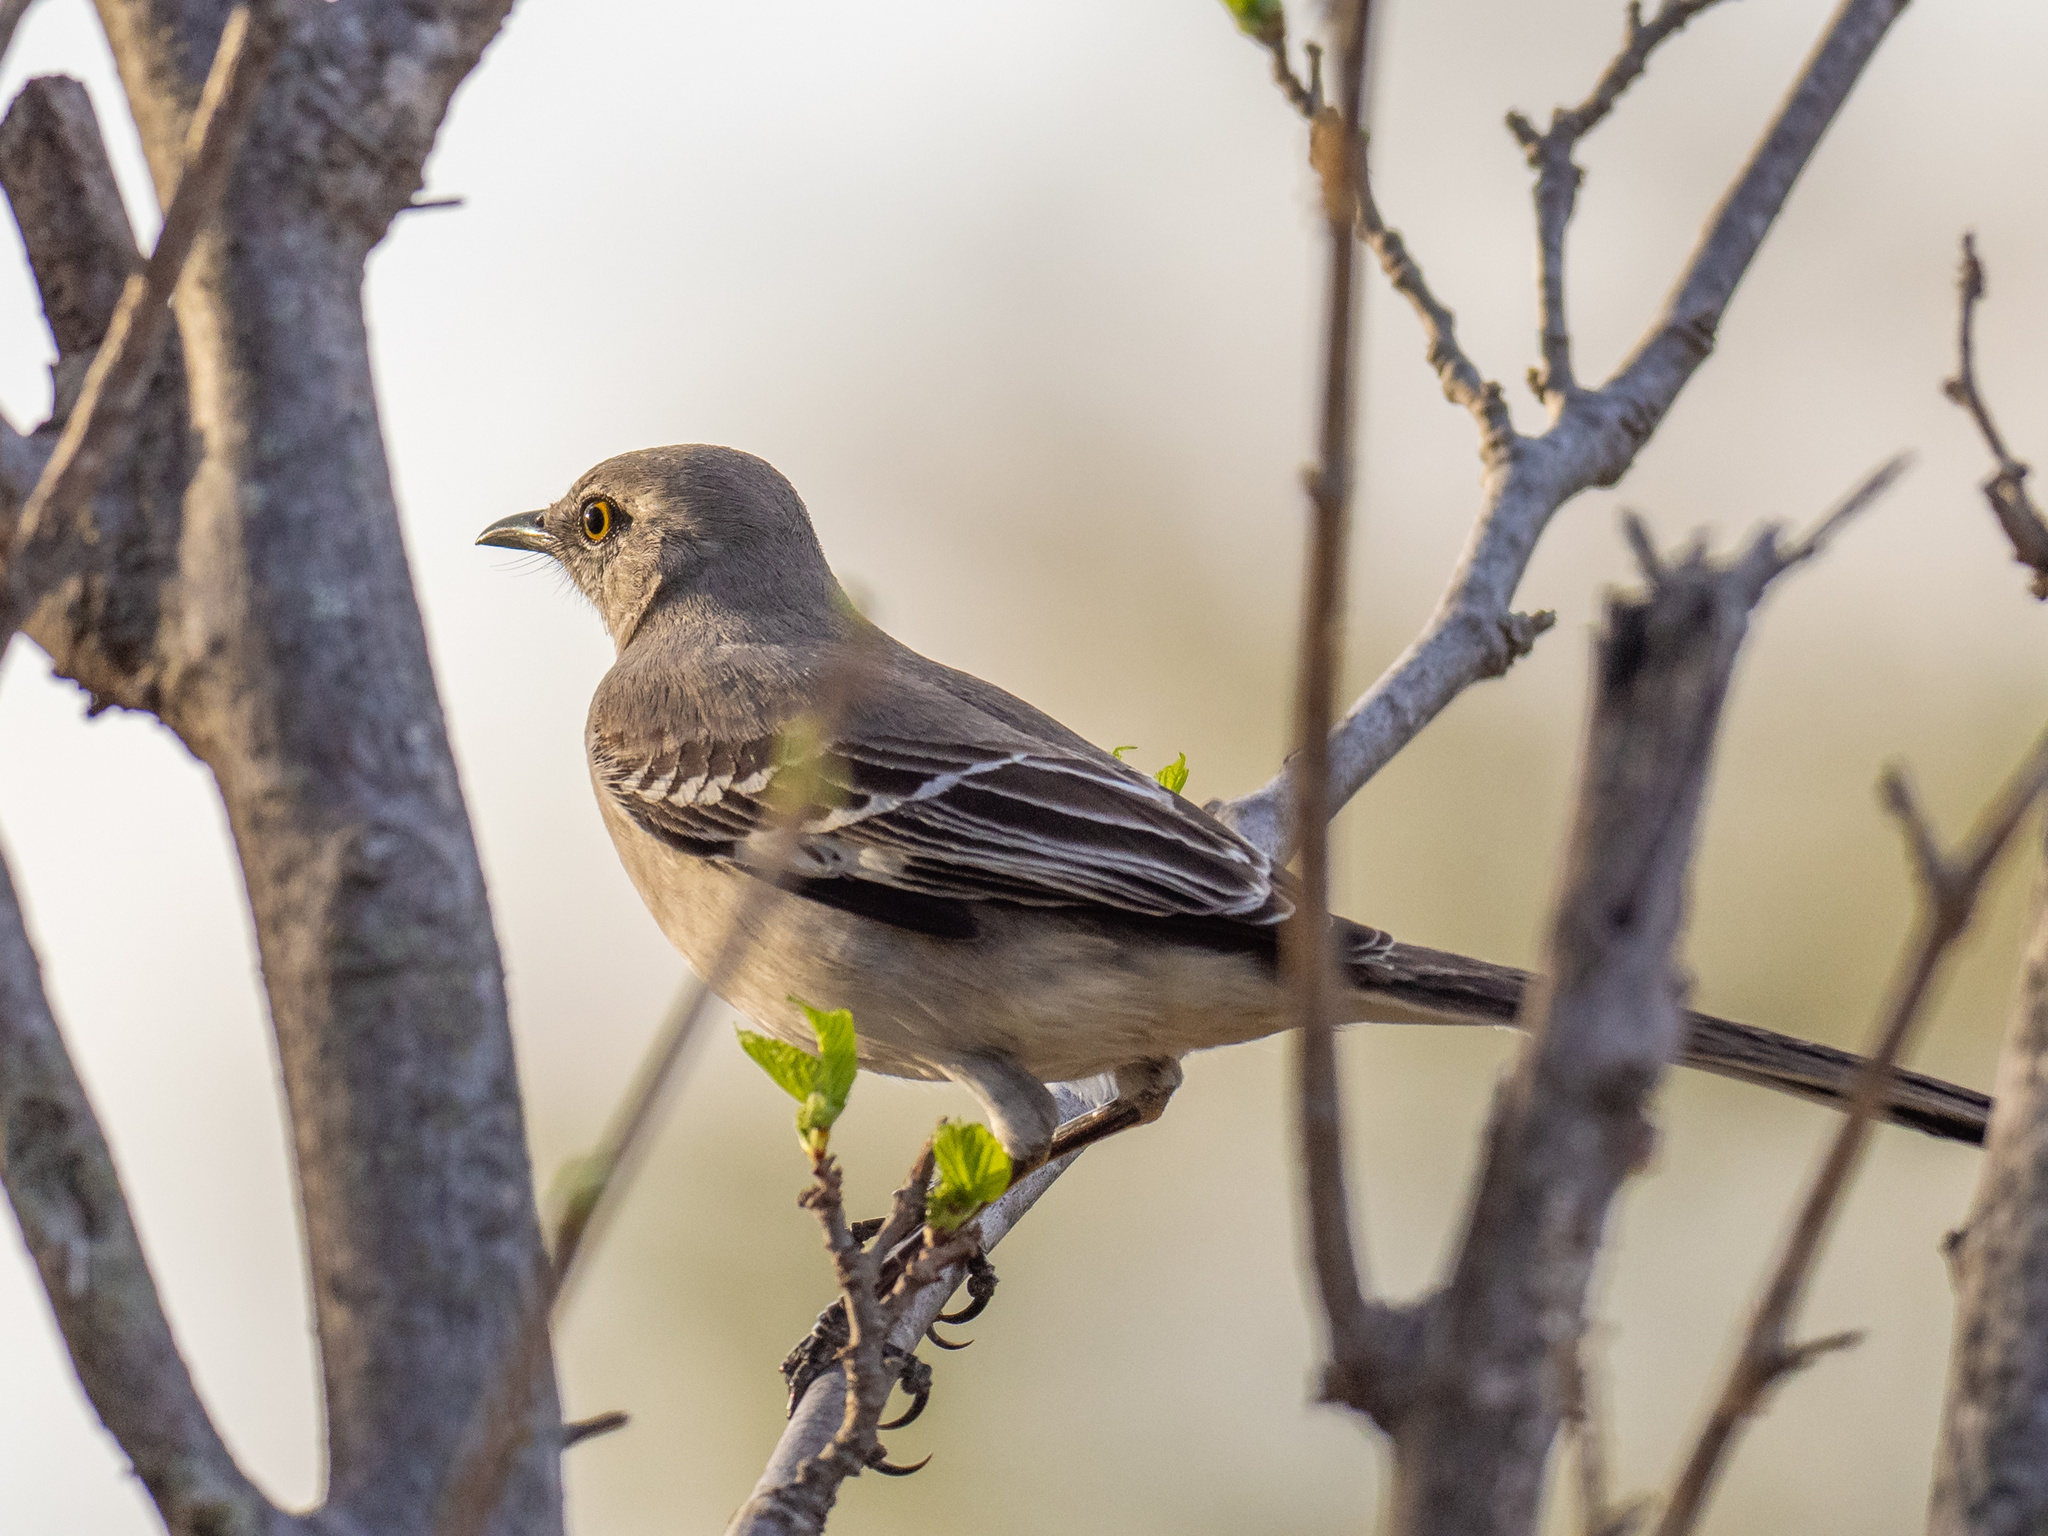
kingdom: Animalia
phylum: Chordata
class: Aves
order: Passeriformes
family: Mimidae
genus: Mimus
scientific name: Mimus polyglottos
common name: Northern mockingbird
